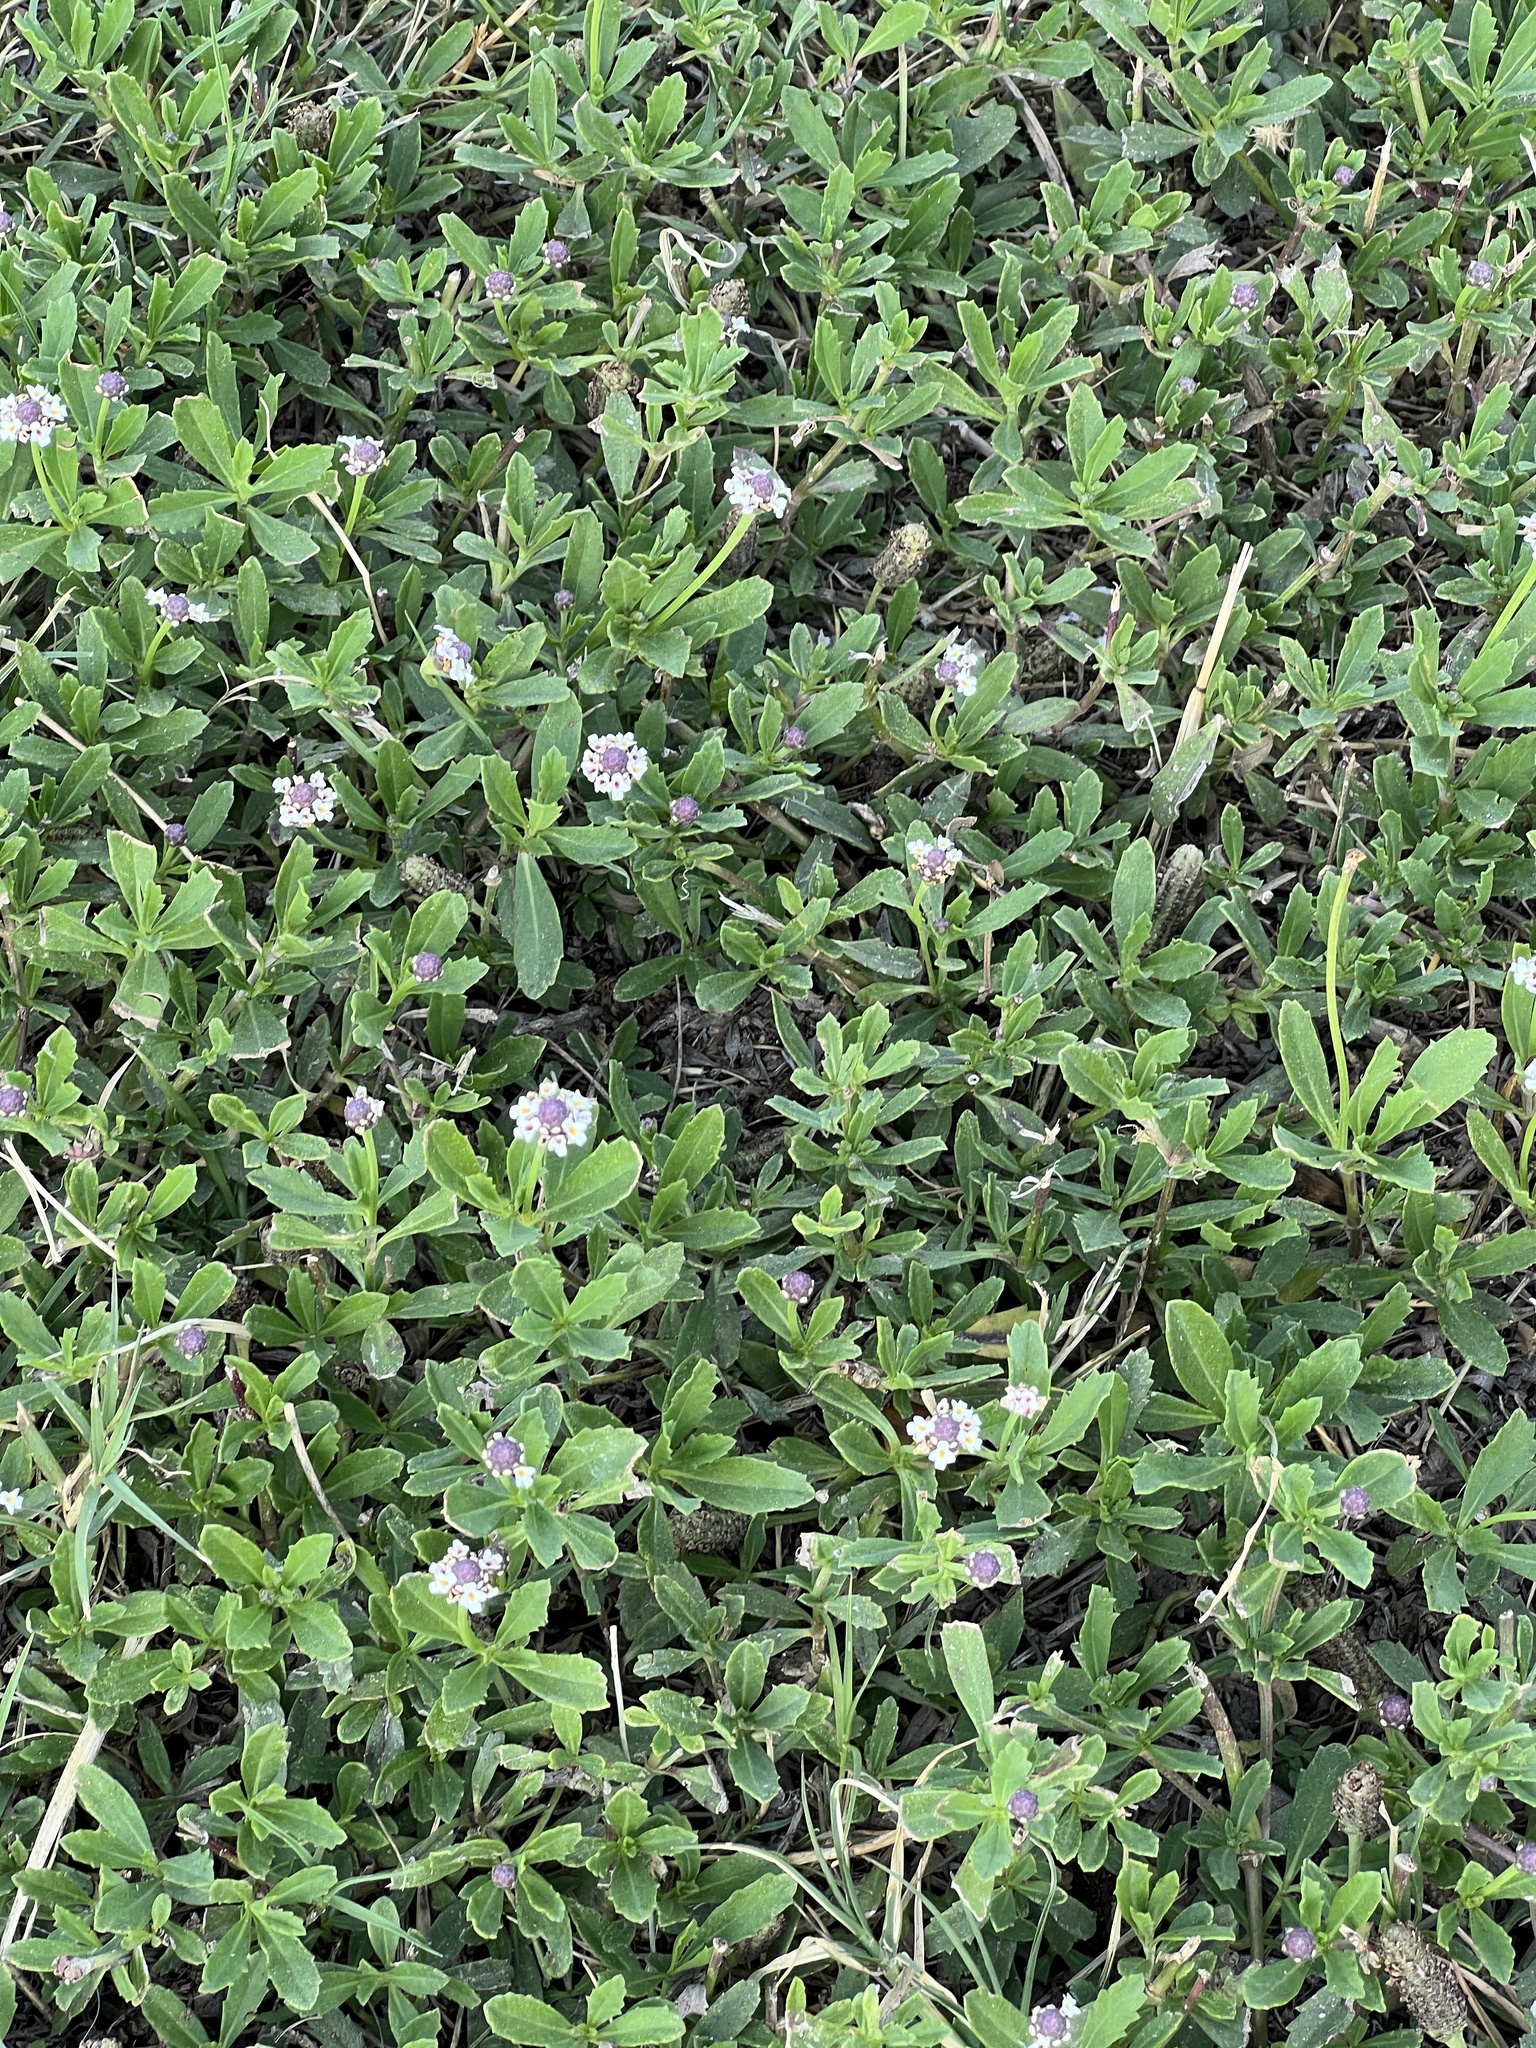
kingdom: Plantae
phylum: Tracheophyta
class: Magnoliopsida
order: Lamiales
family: Verbenaceae
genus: Phyla
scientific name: Phyla nodiflora
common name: Frogfruit
